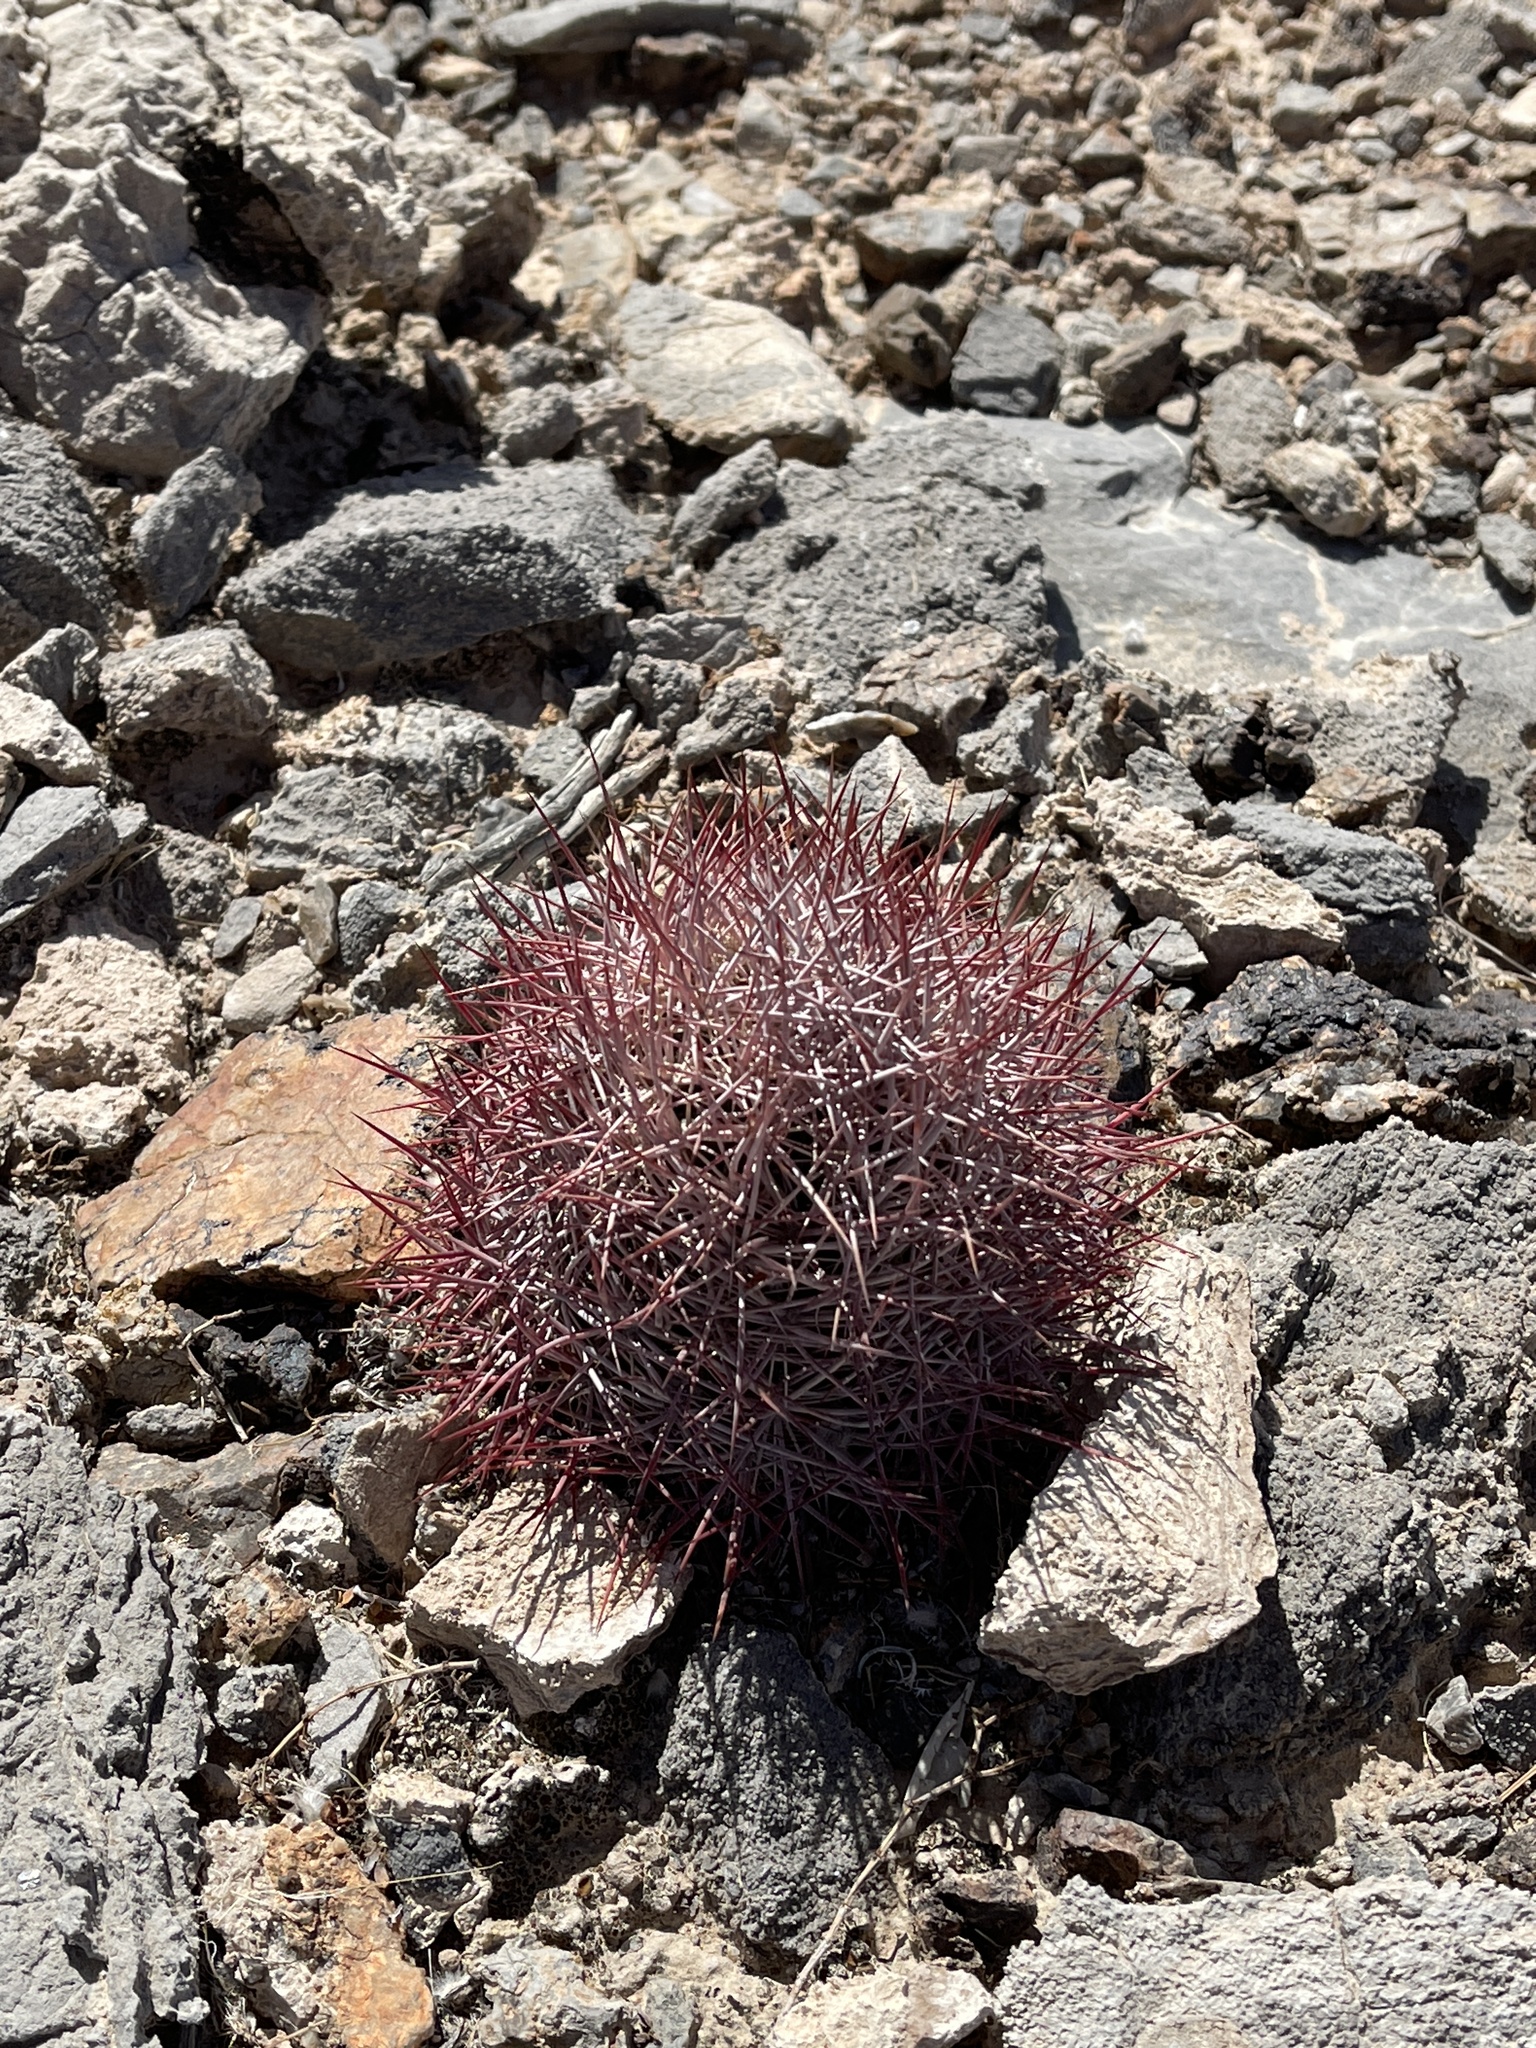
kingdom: Plantae
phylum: Tracheophyta
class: Magnoliopsida
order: Caryophyllales
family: Cactaceae
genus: Sclerocactus
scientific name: Sclerocactus johnsonii
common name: Eight-spine fishhook cactus
